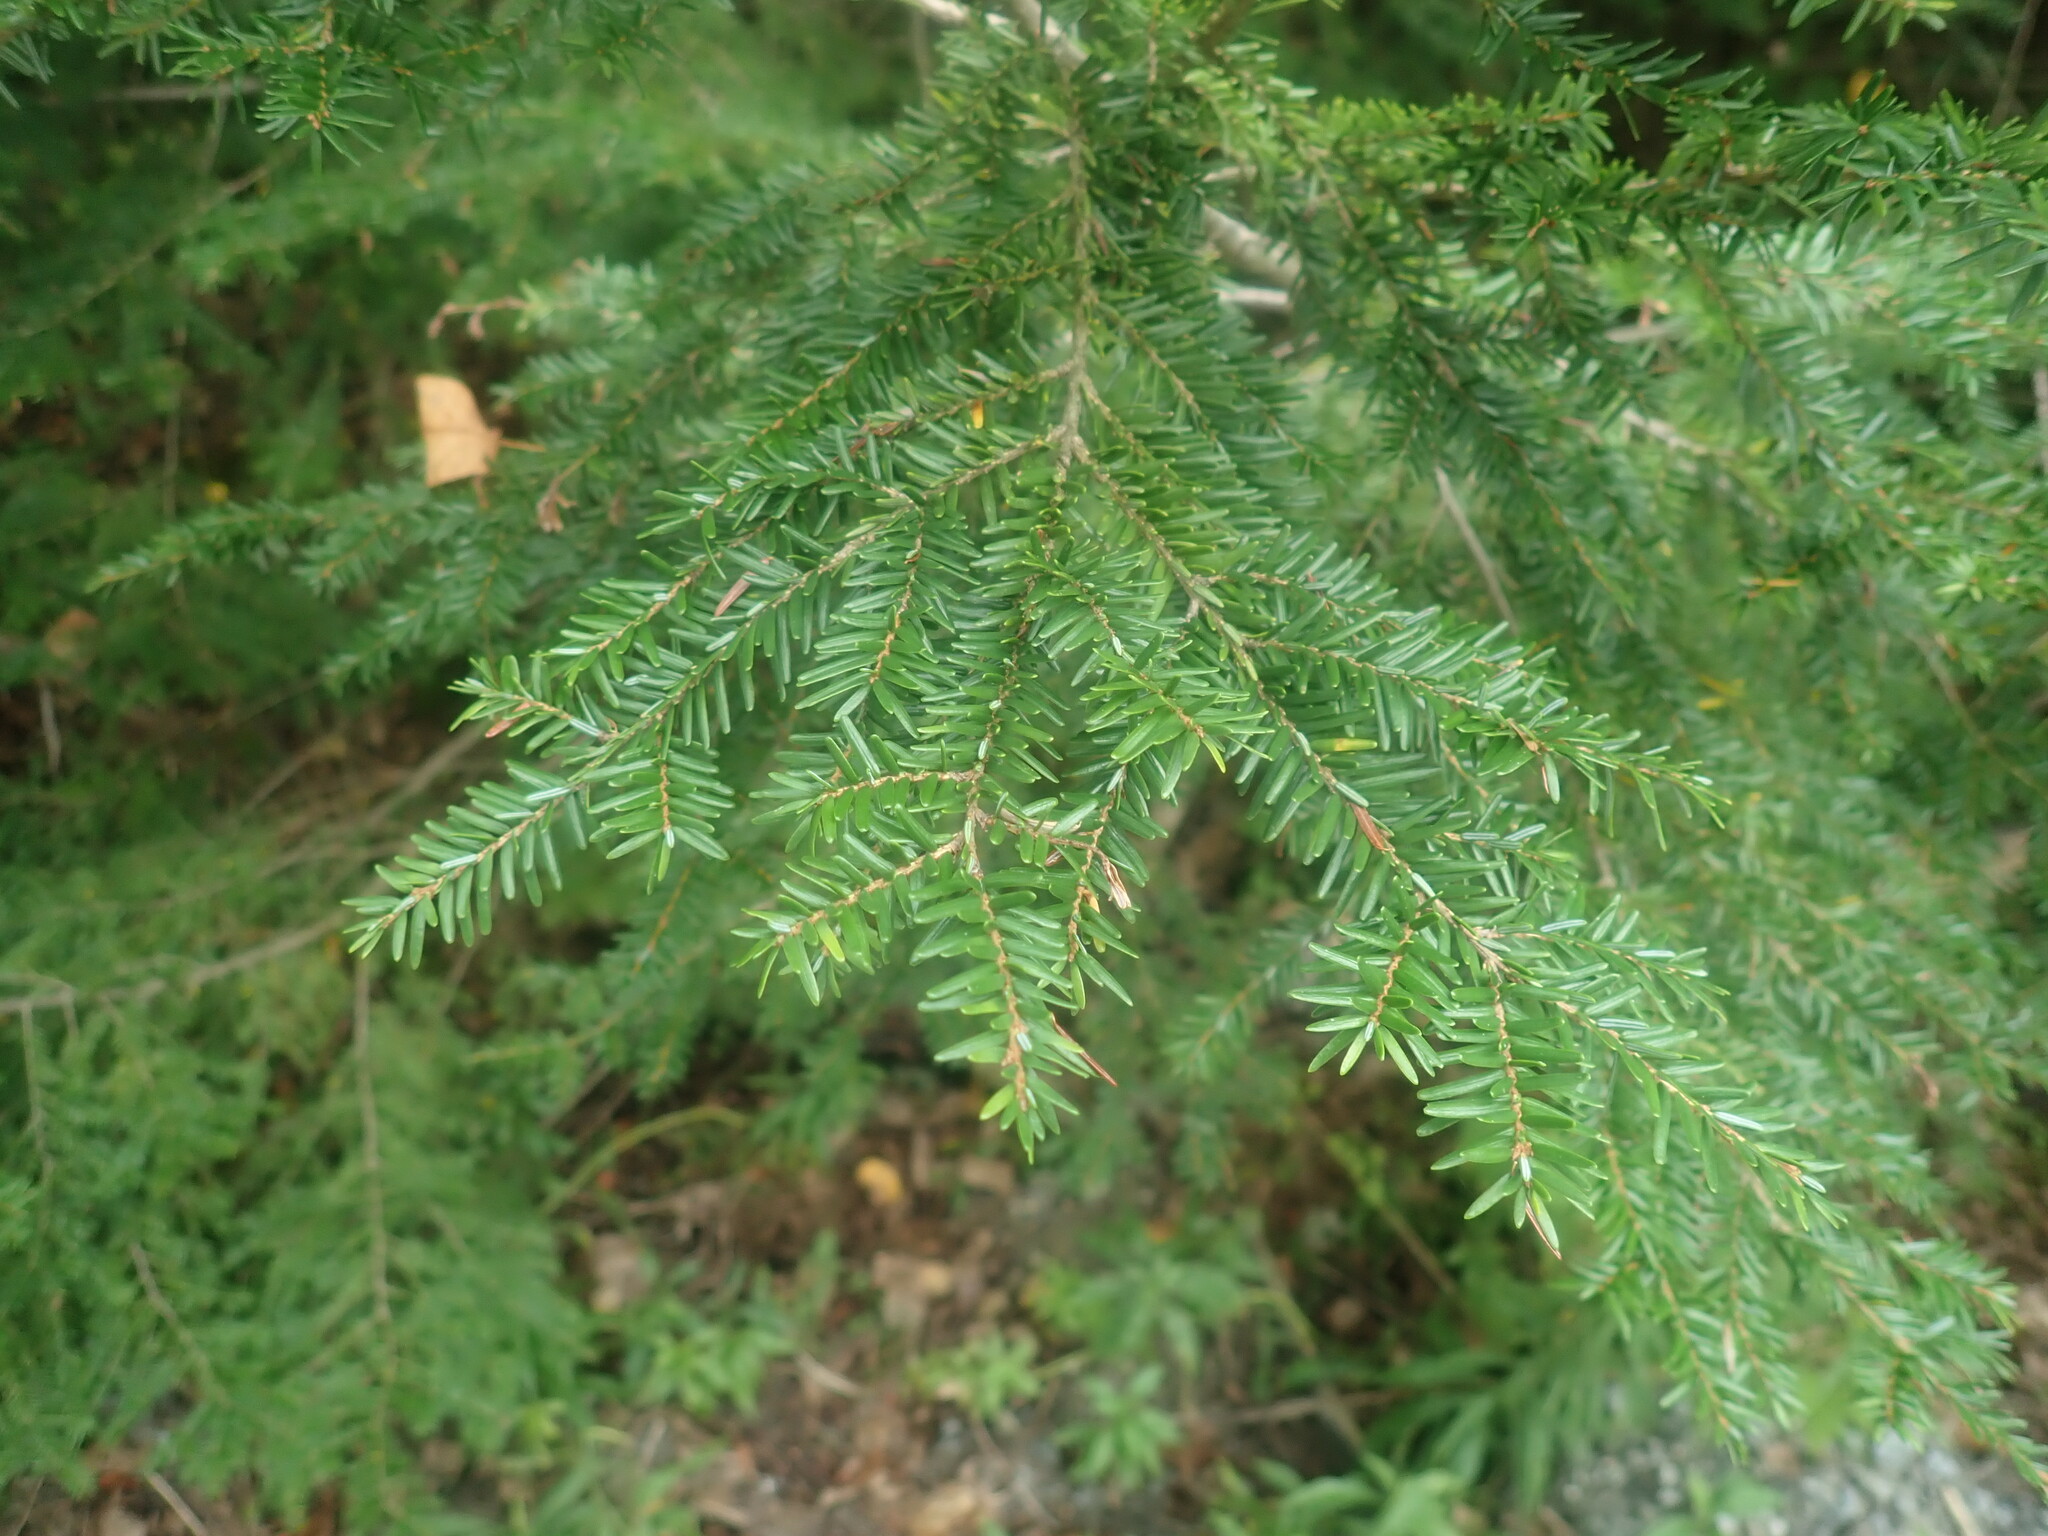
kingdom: Plantae
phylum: Tracheophyta
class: Pinopsida
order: Pinales
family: Pinaceae
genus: Tsuga
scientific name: Tsuga canadensis
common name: Eastern hemlock
